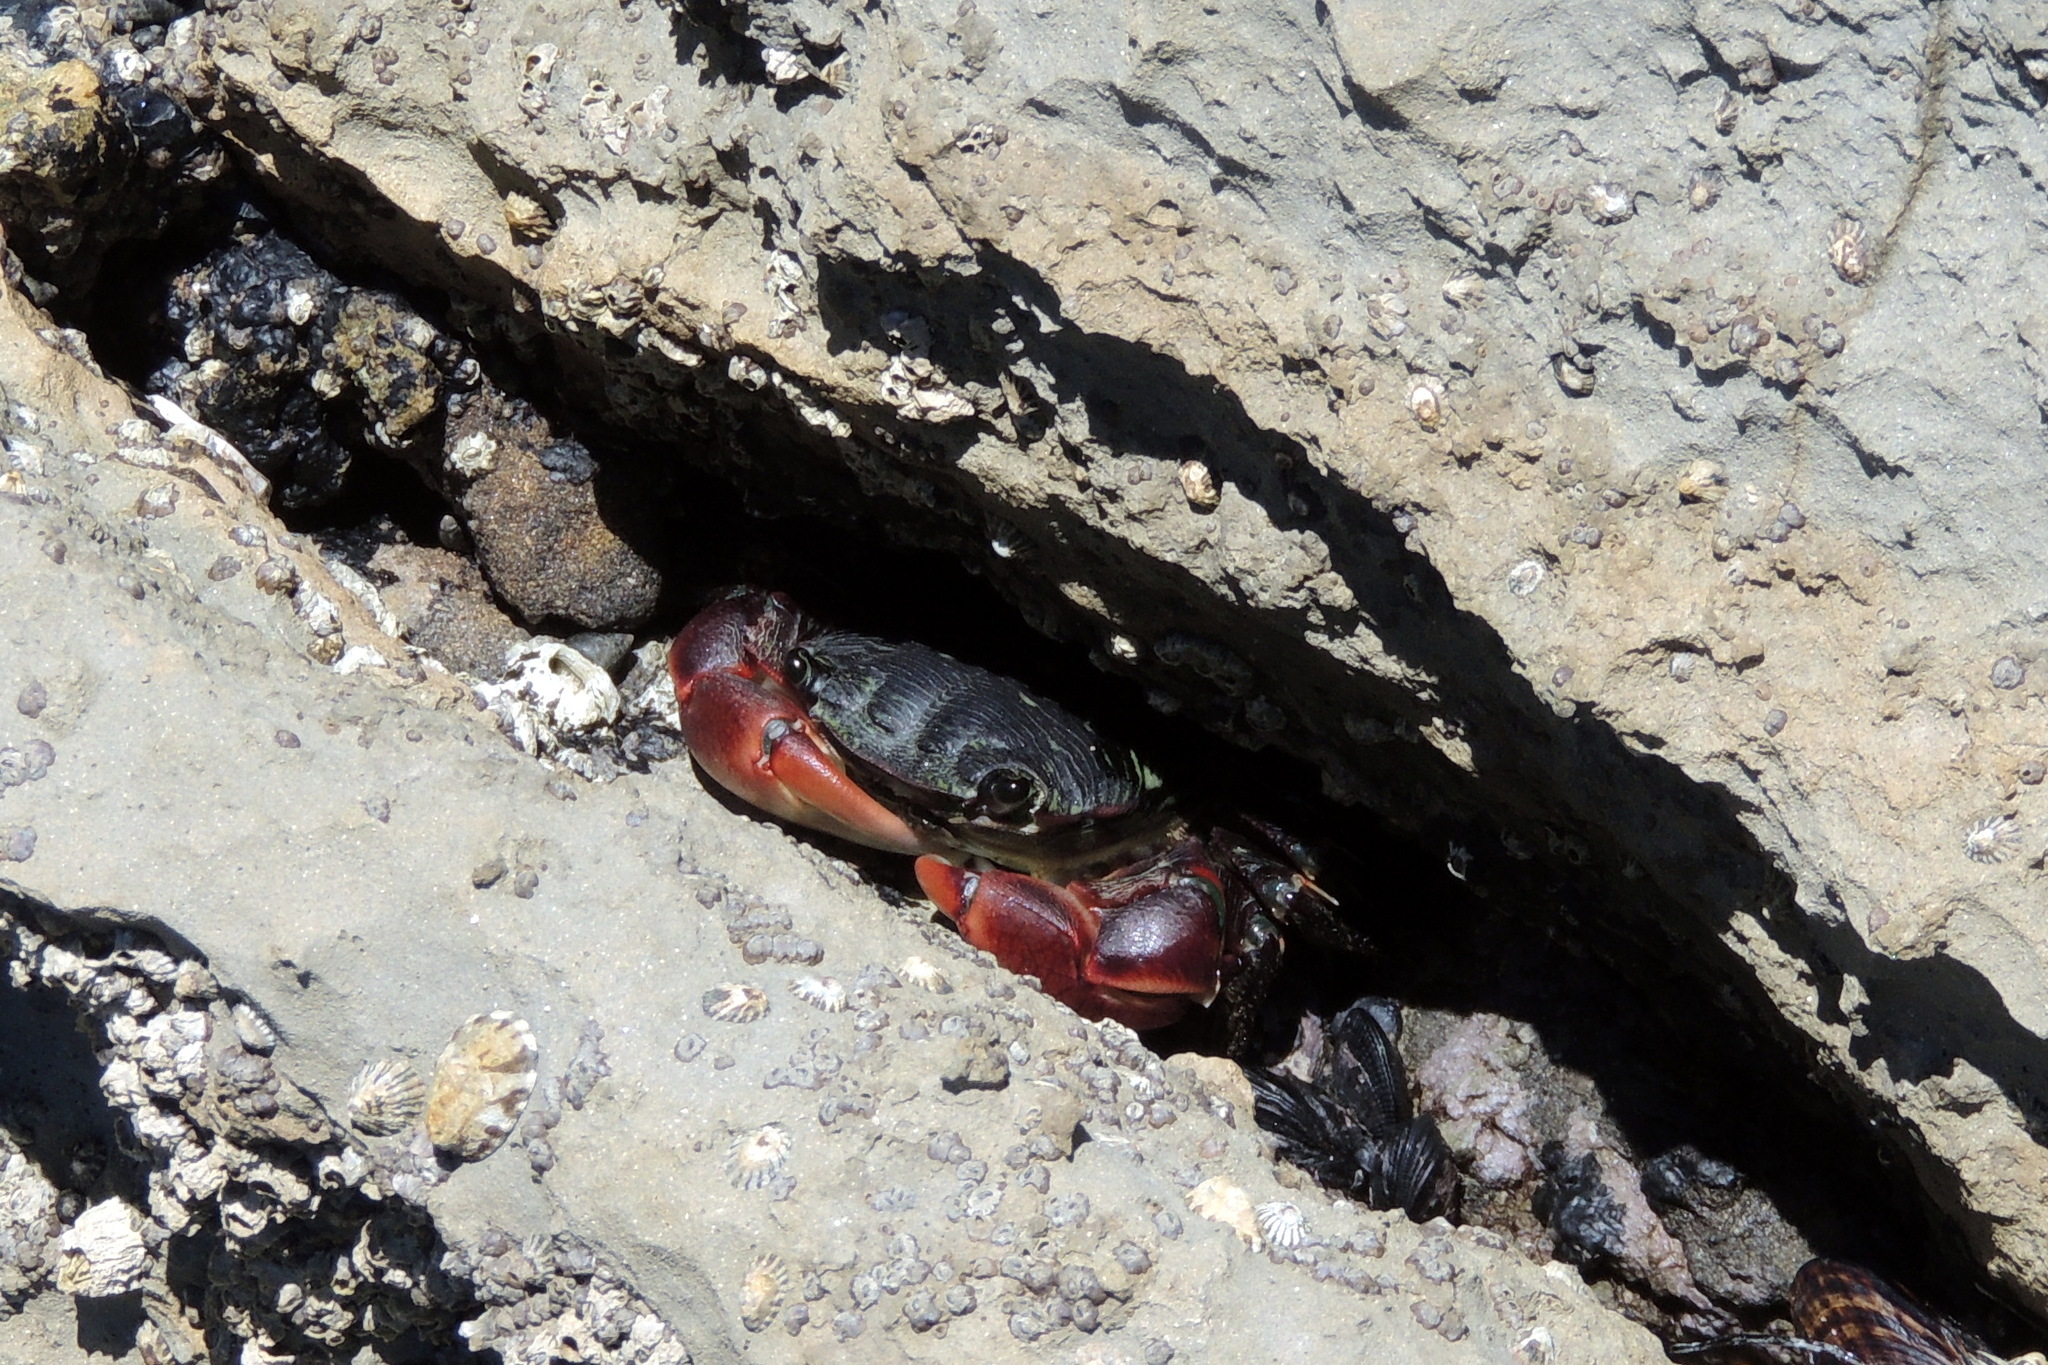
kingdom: Animalia
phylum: Arthropoda
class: Malacostraca
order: Decapoda
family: Grapsidae
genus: Pachygrapsus
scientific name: Pachygrapsus crassipes
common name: Striped shore crab
